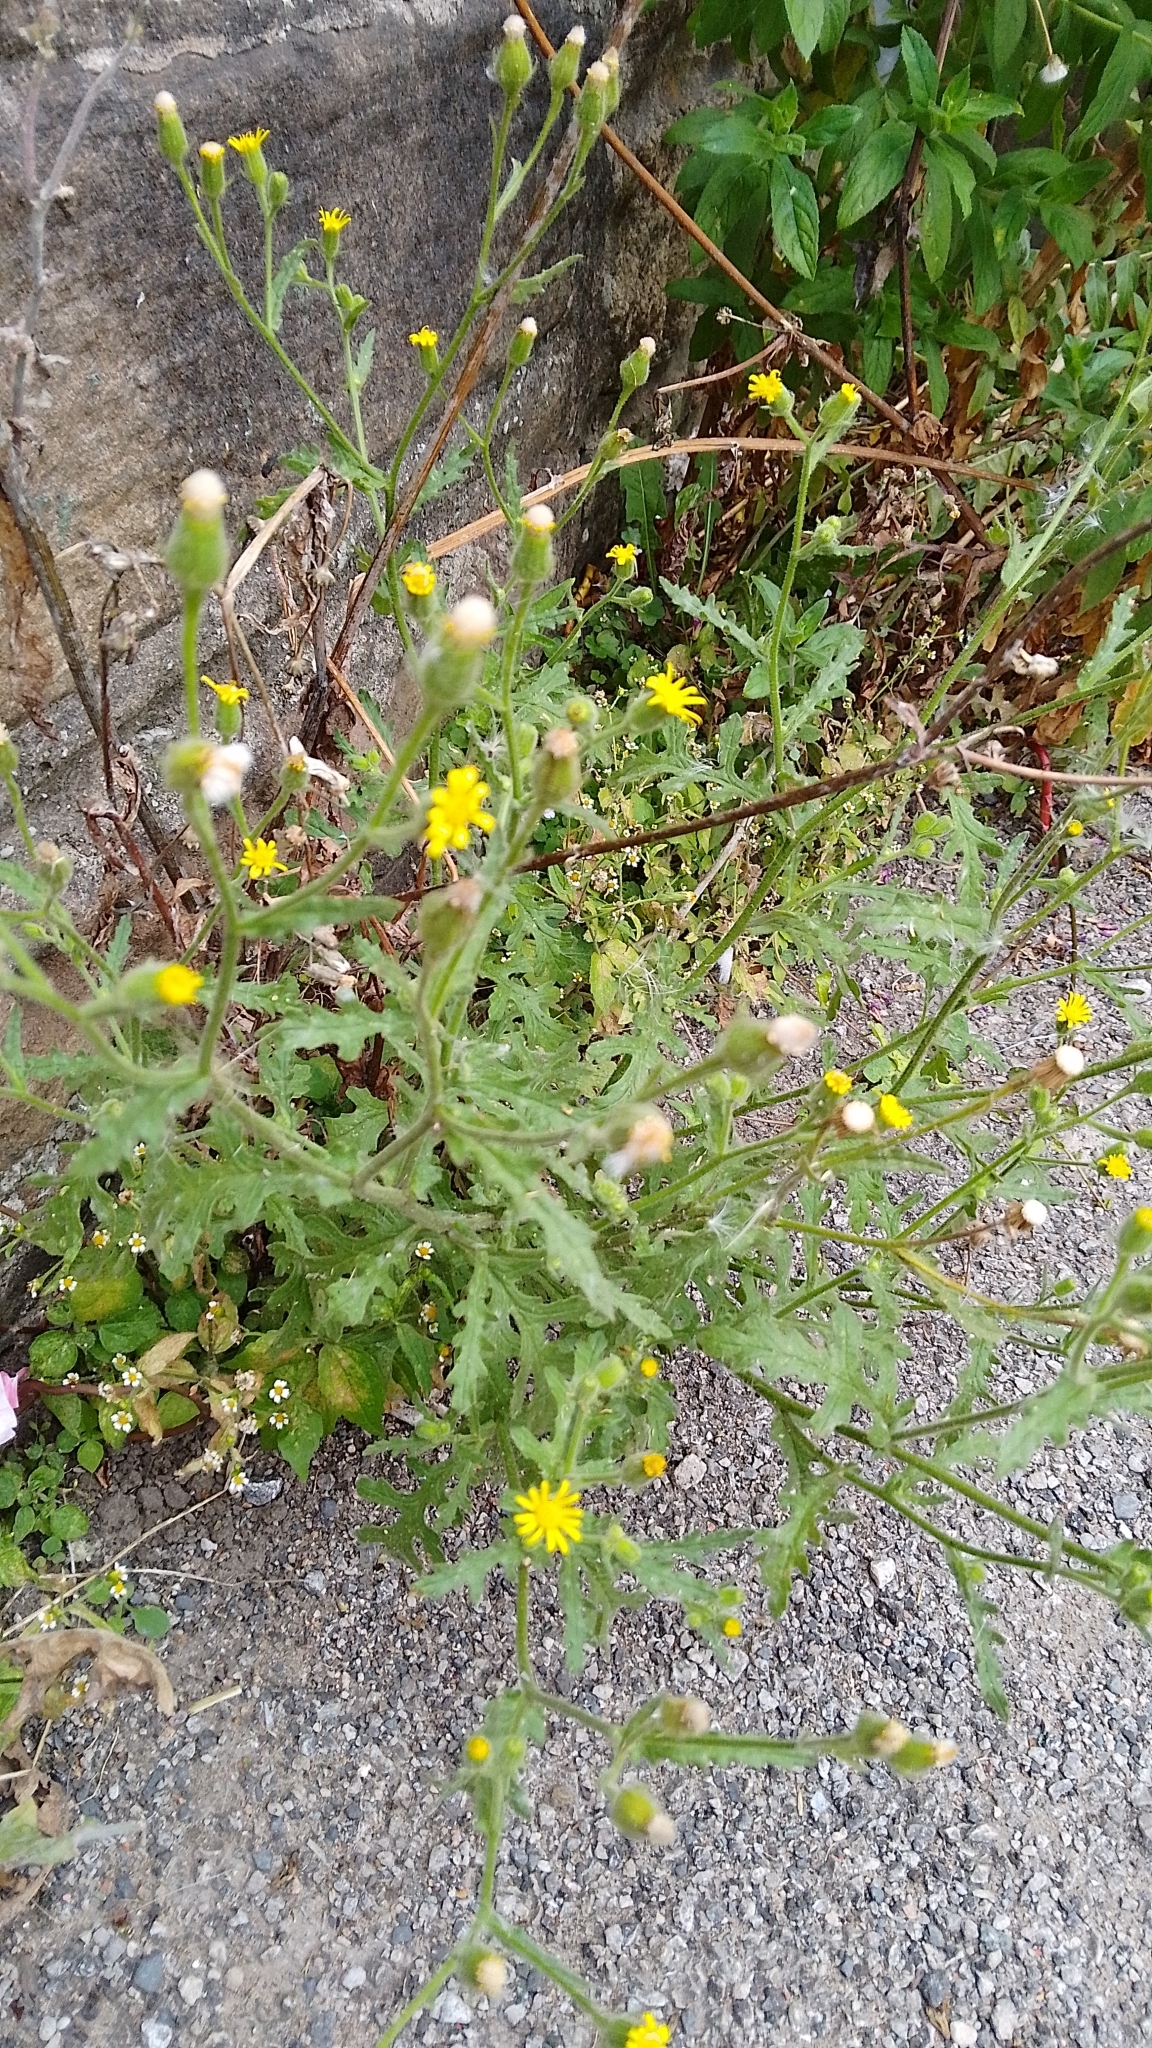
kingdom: Plantae
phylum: Tracheophyta
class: Magnoliopsida
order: Asterales
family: Asteraceae
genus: Senecio
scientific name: Senecio viscosus
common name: Sticky groundsel
